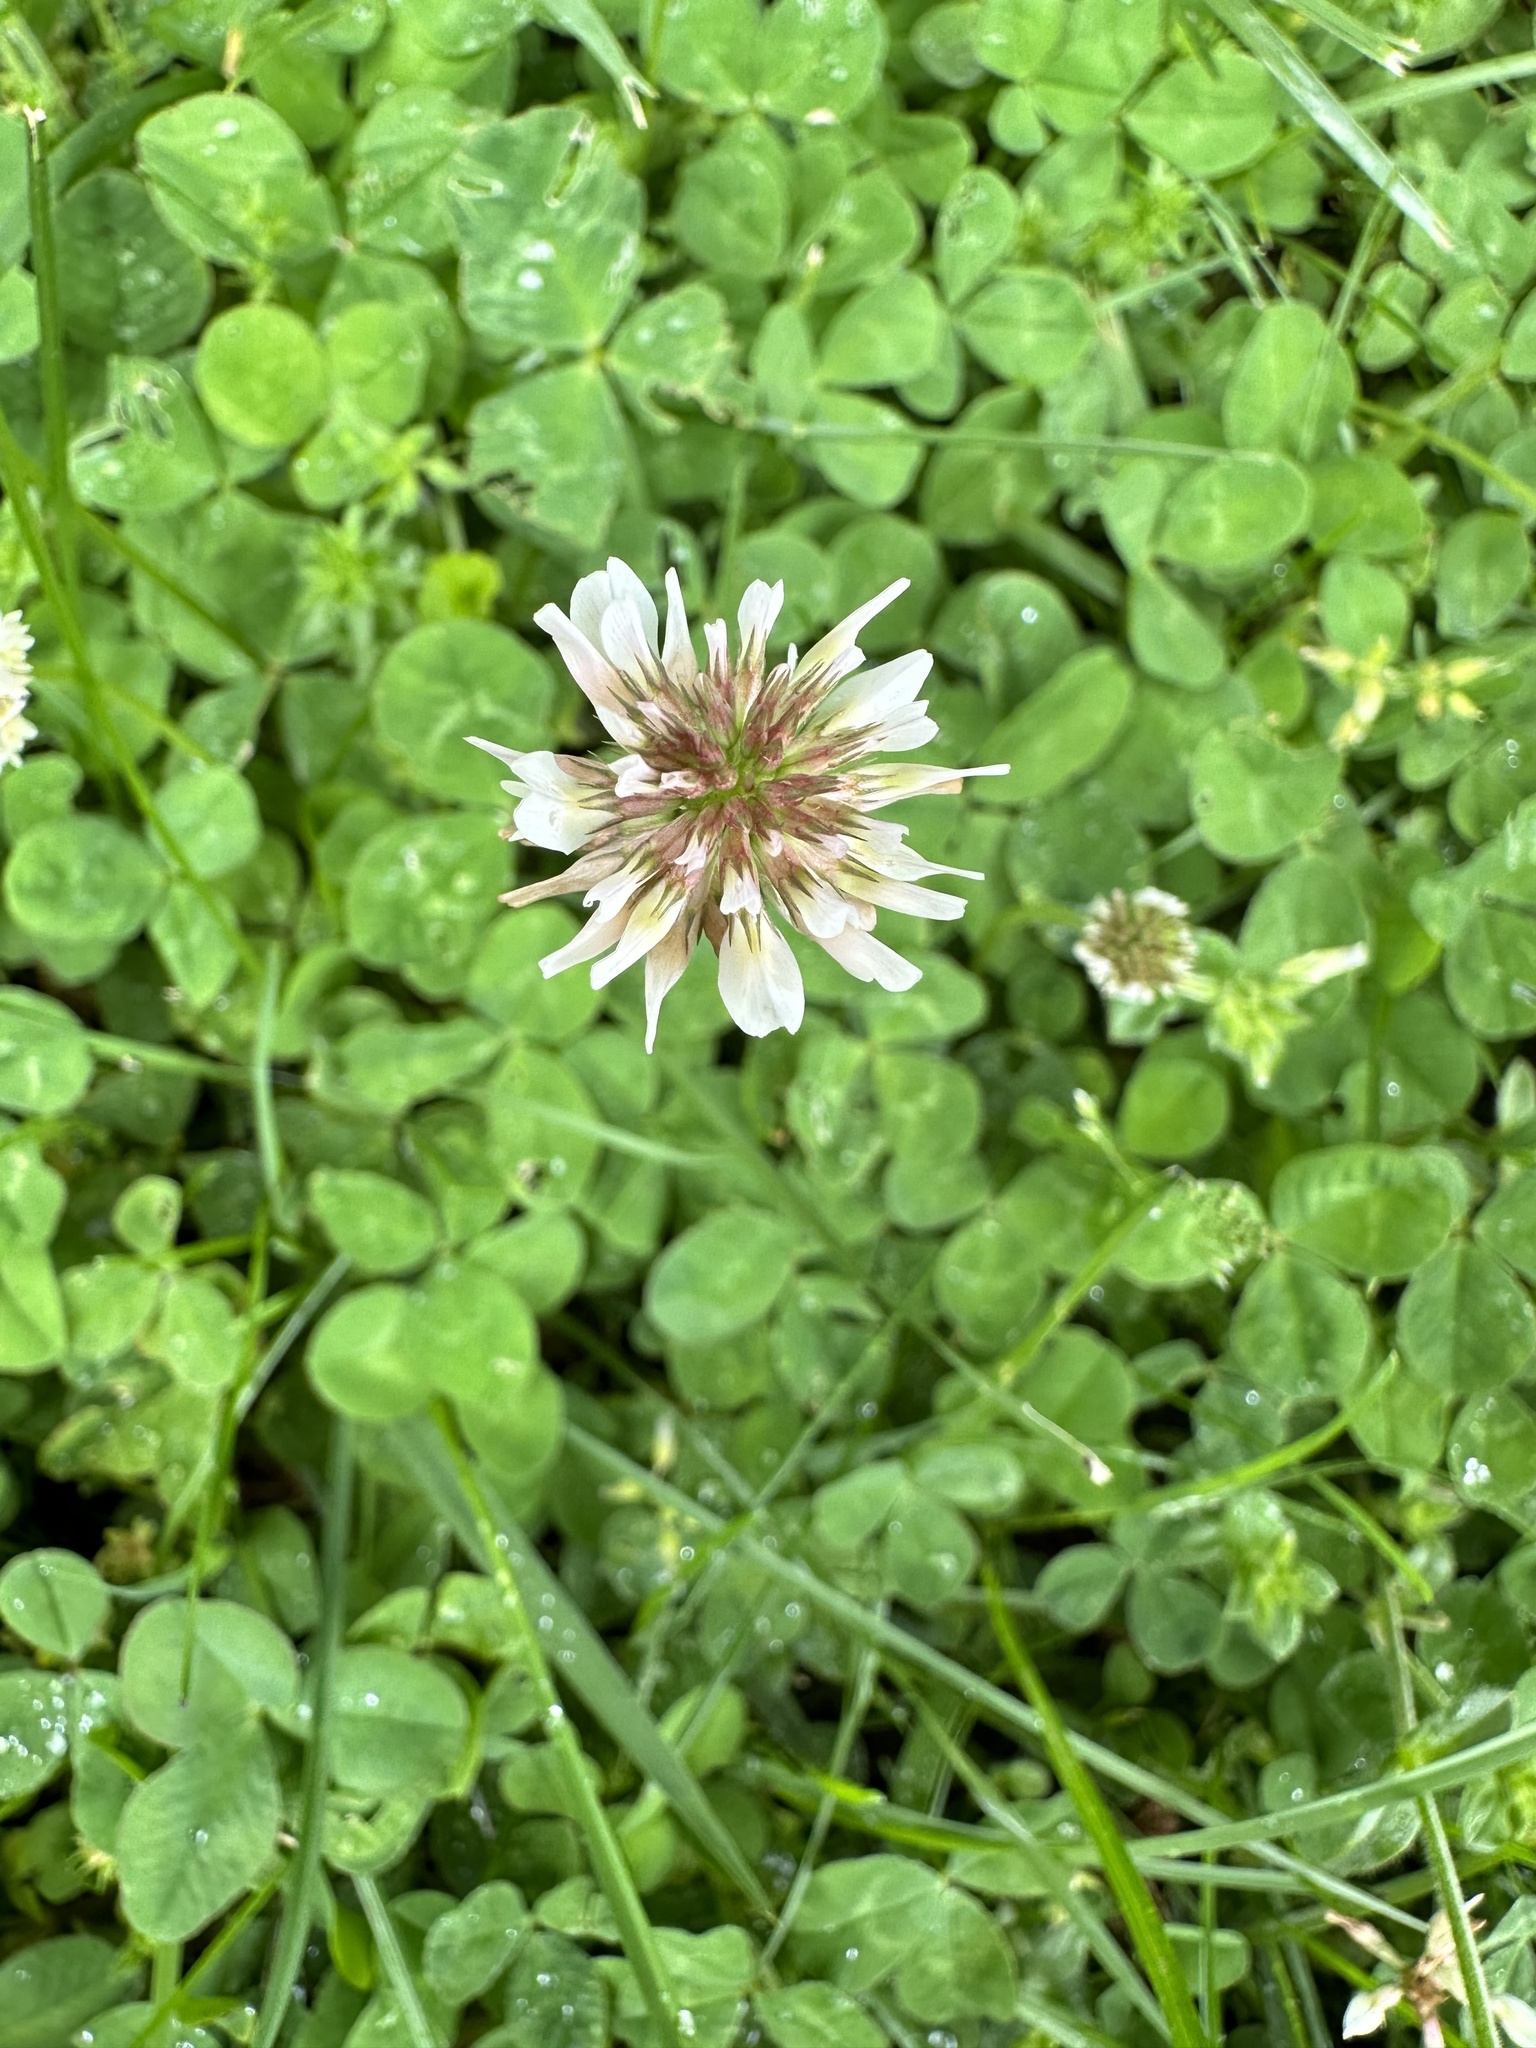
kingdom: Plantae
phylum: Tracheophyta
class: Magnoliopsida
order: Fabales
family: Fabaceae
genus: Trifolium
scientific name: Trifolium repens
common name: White clover
